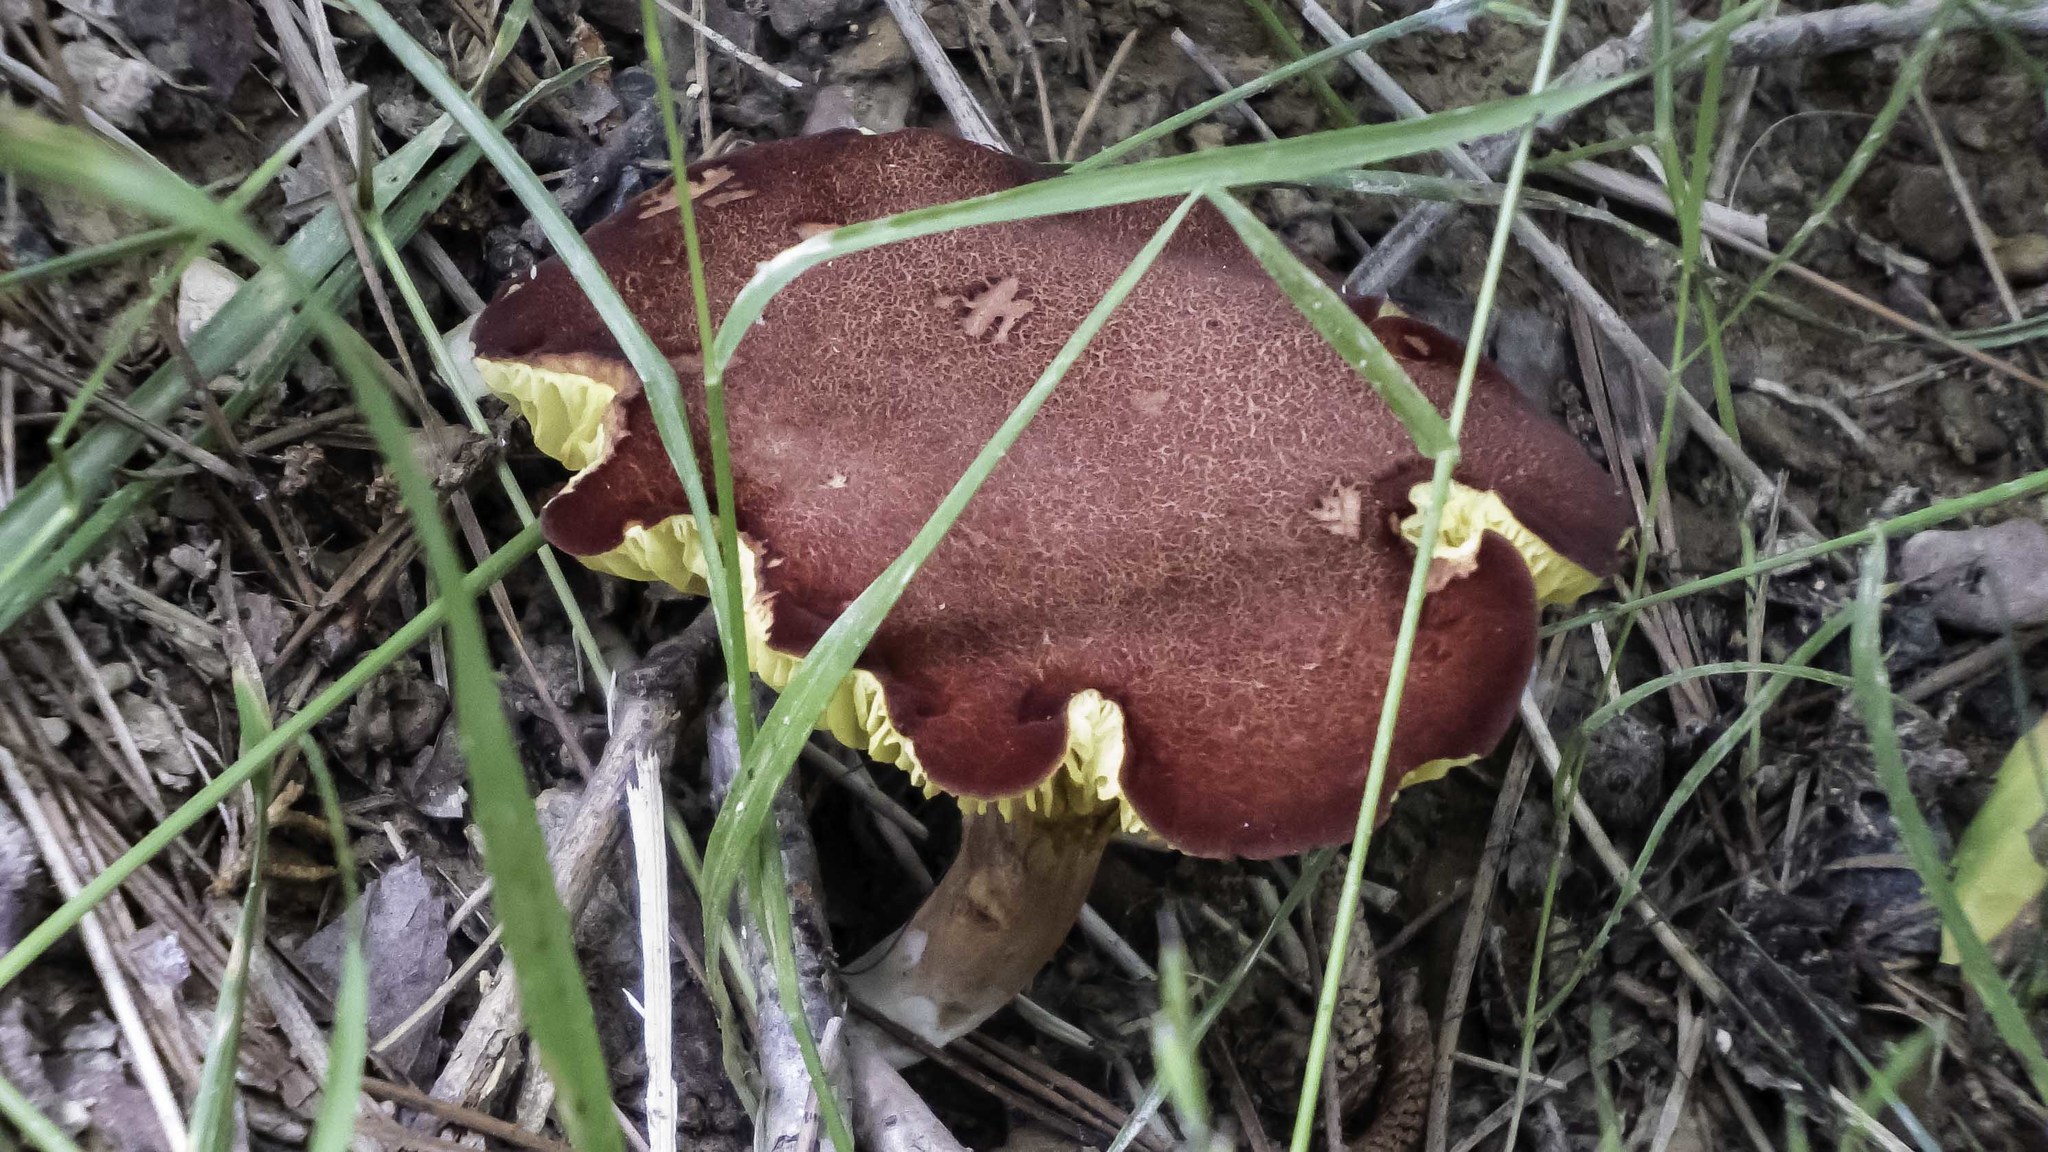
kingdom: Fungi
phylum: Basidiomycota
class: Agaricomycetes
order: Boletales
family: Boletaceae
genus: Phylloporus
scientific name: Phylloporus leucomycelinus
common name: Gilled bolete
